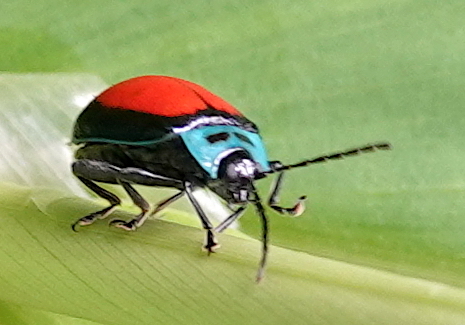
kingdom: Animalia
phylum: Arthropoda
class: Insecta
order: Coleoptera
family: Chrysomelidae
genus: Aspicela
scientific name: Aspicela
